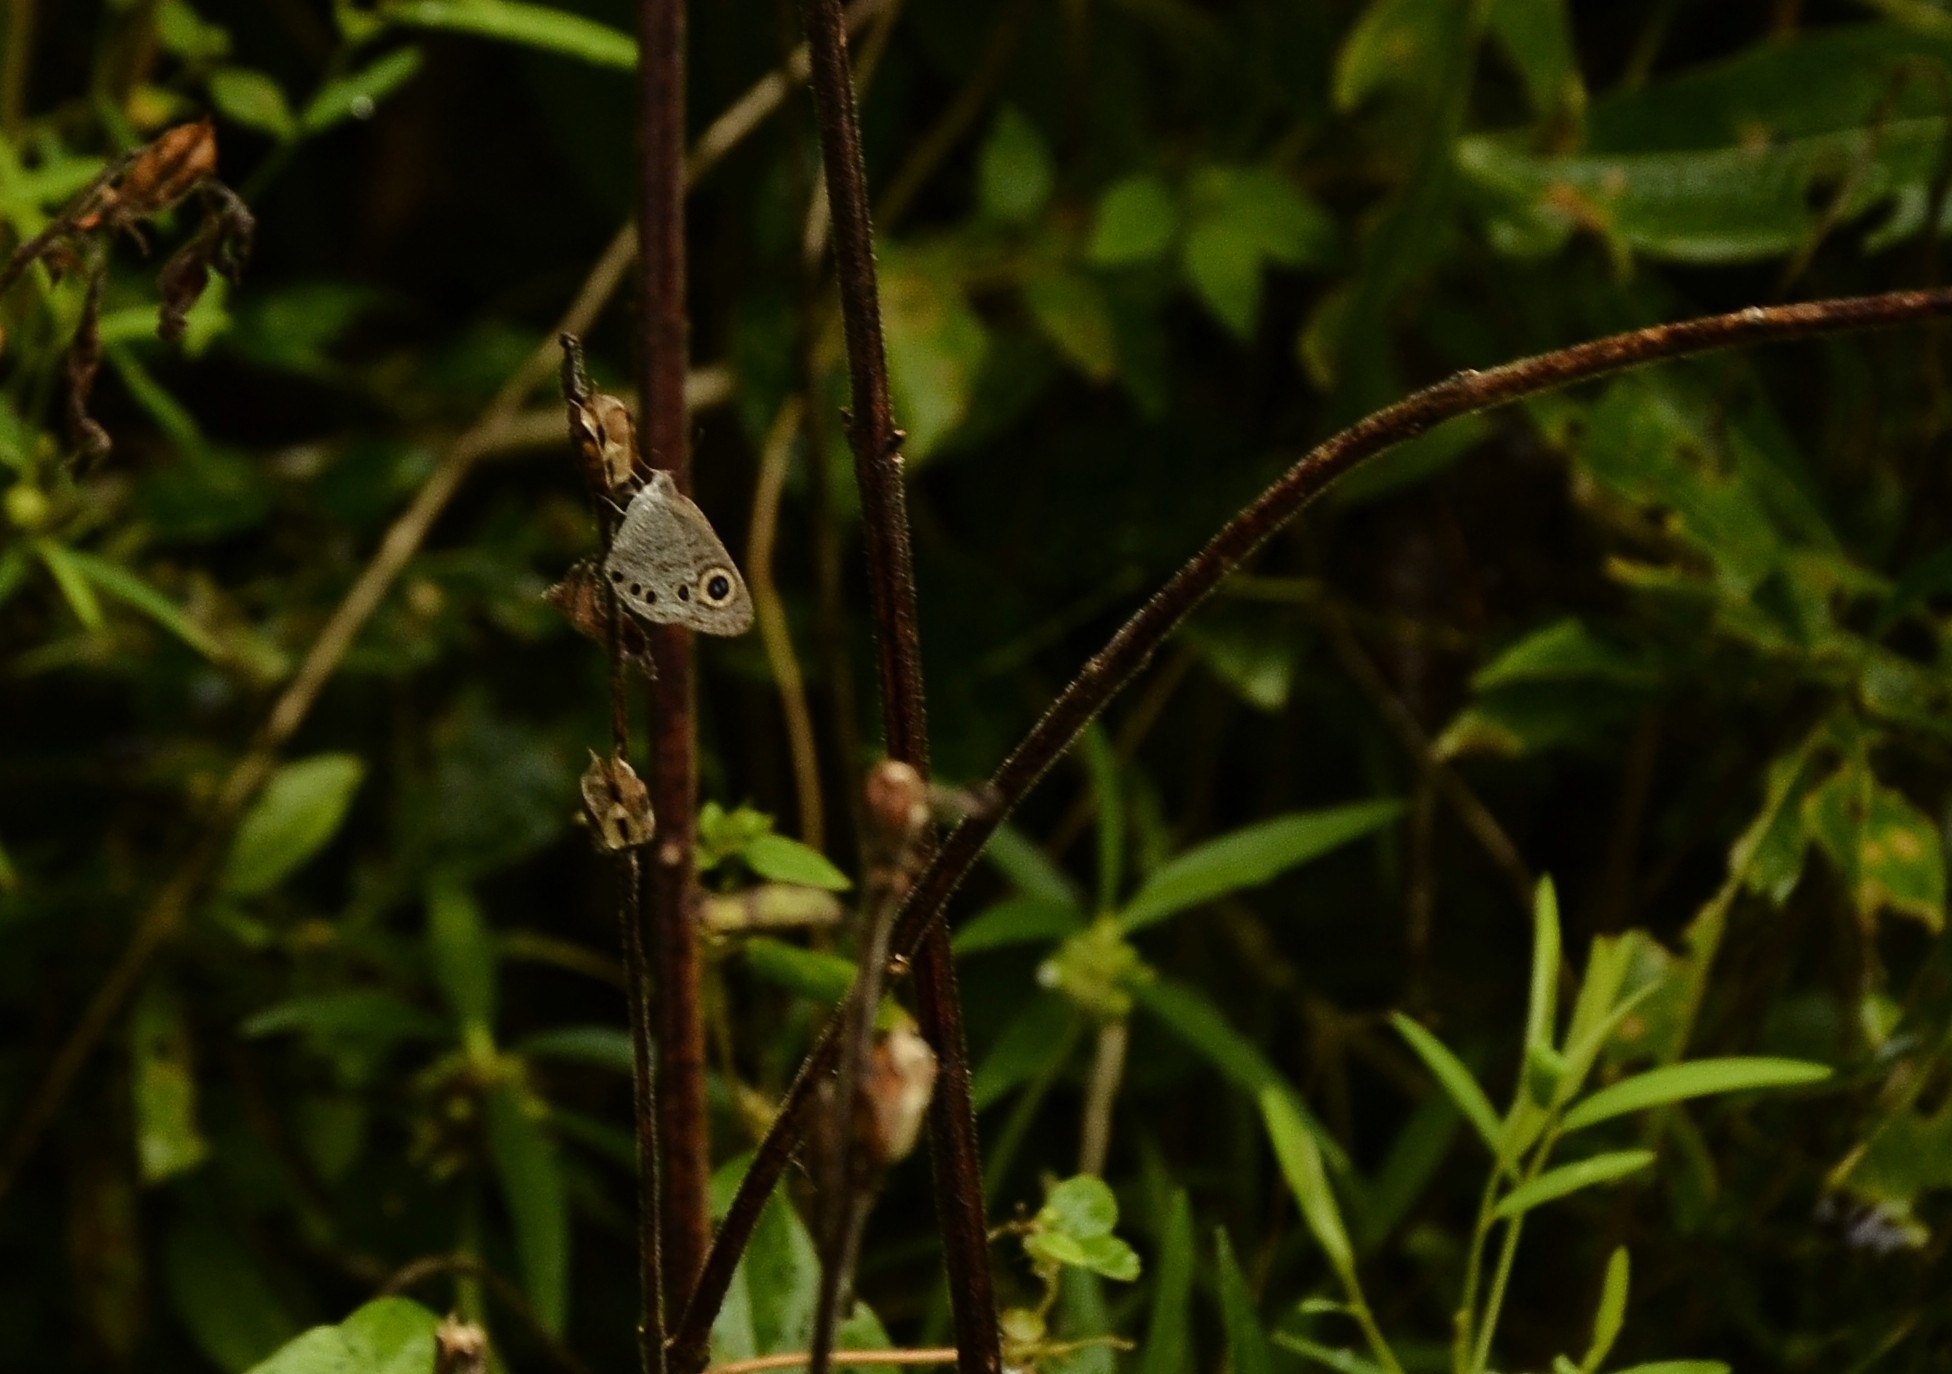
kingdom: Animalia
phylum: Arthropoda
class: Insecta
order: Lepidoptera
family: Nymphalidae
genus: Ypthima
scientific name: Ypthima huebneri
